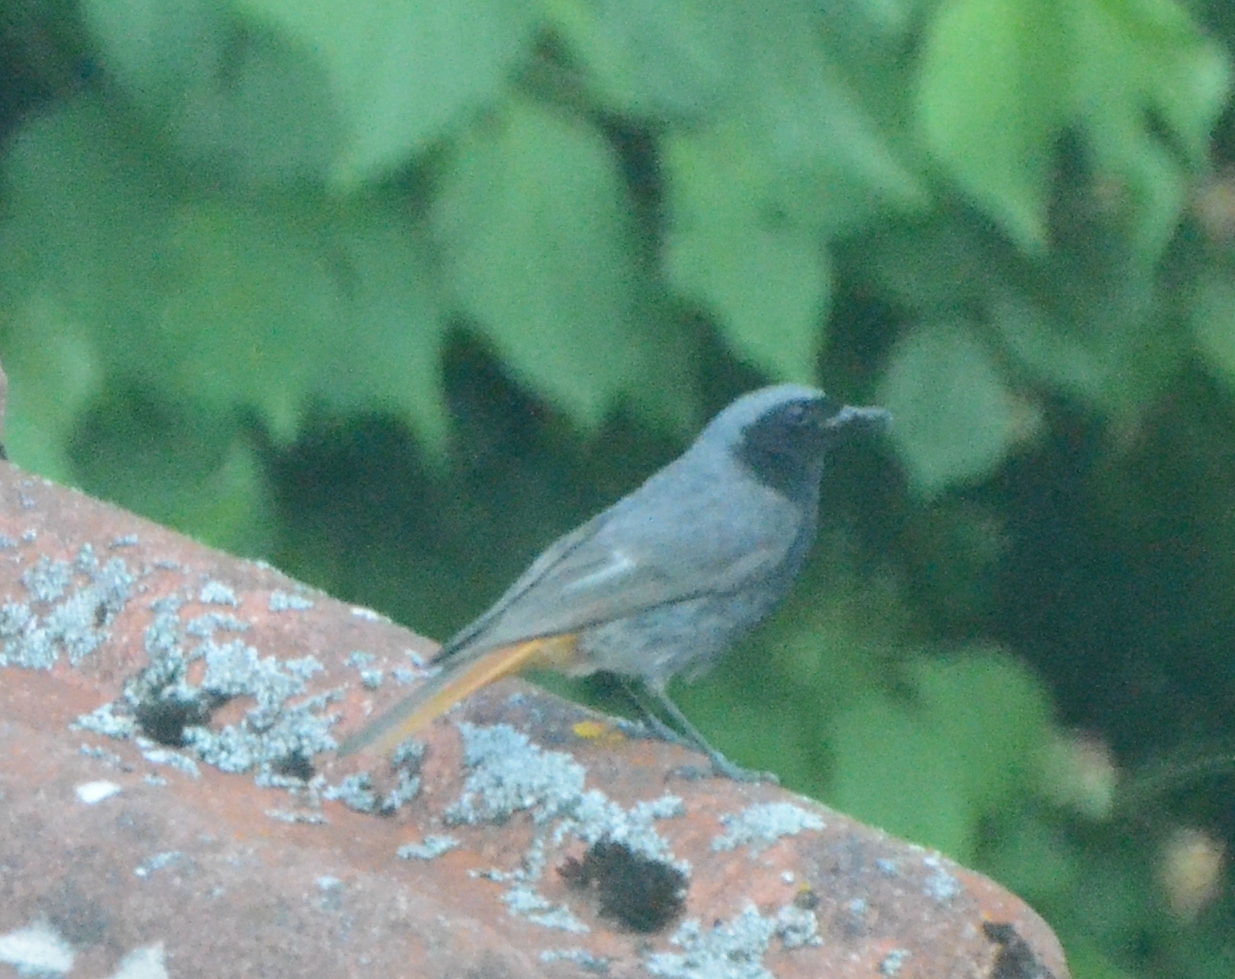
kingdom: Animalia
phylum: Chordata
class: Aves
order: Passeriformes
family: Muscicapidae
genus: Phoenicurus
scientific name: Phoenicurus ochruros
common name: Black redstart
